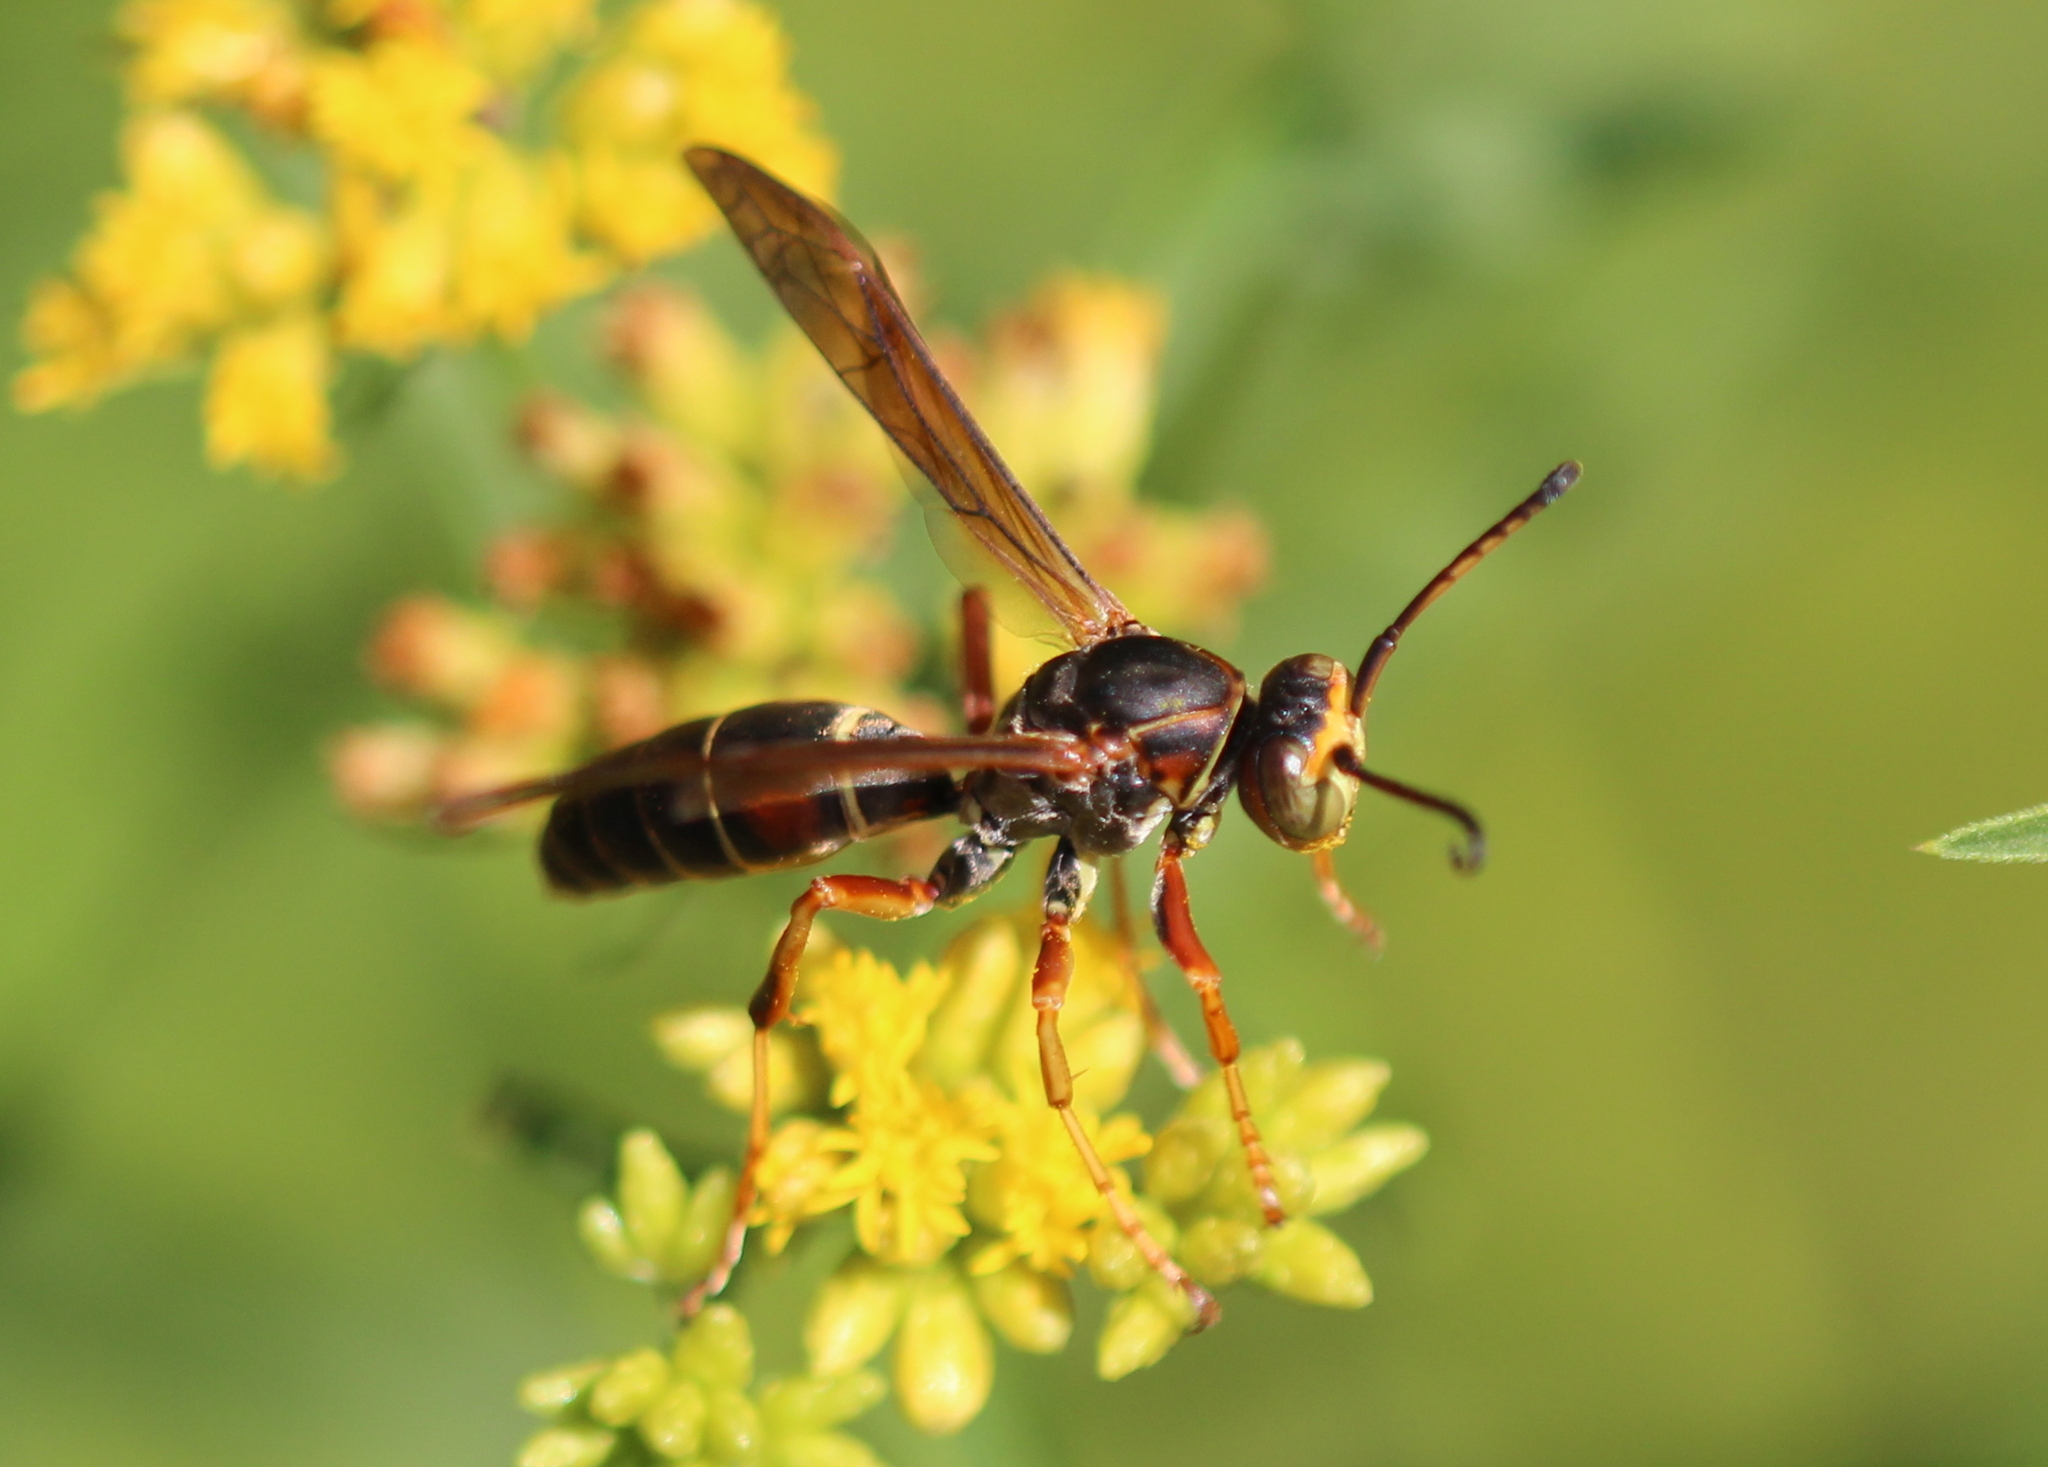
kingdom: Animalia
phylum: Arthropoda
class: Insecta
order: Hymenoptera
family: Eumenidae
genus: Polistes
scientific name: Polistes fuscatus
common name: Dark paper wasp
